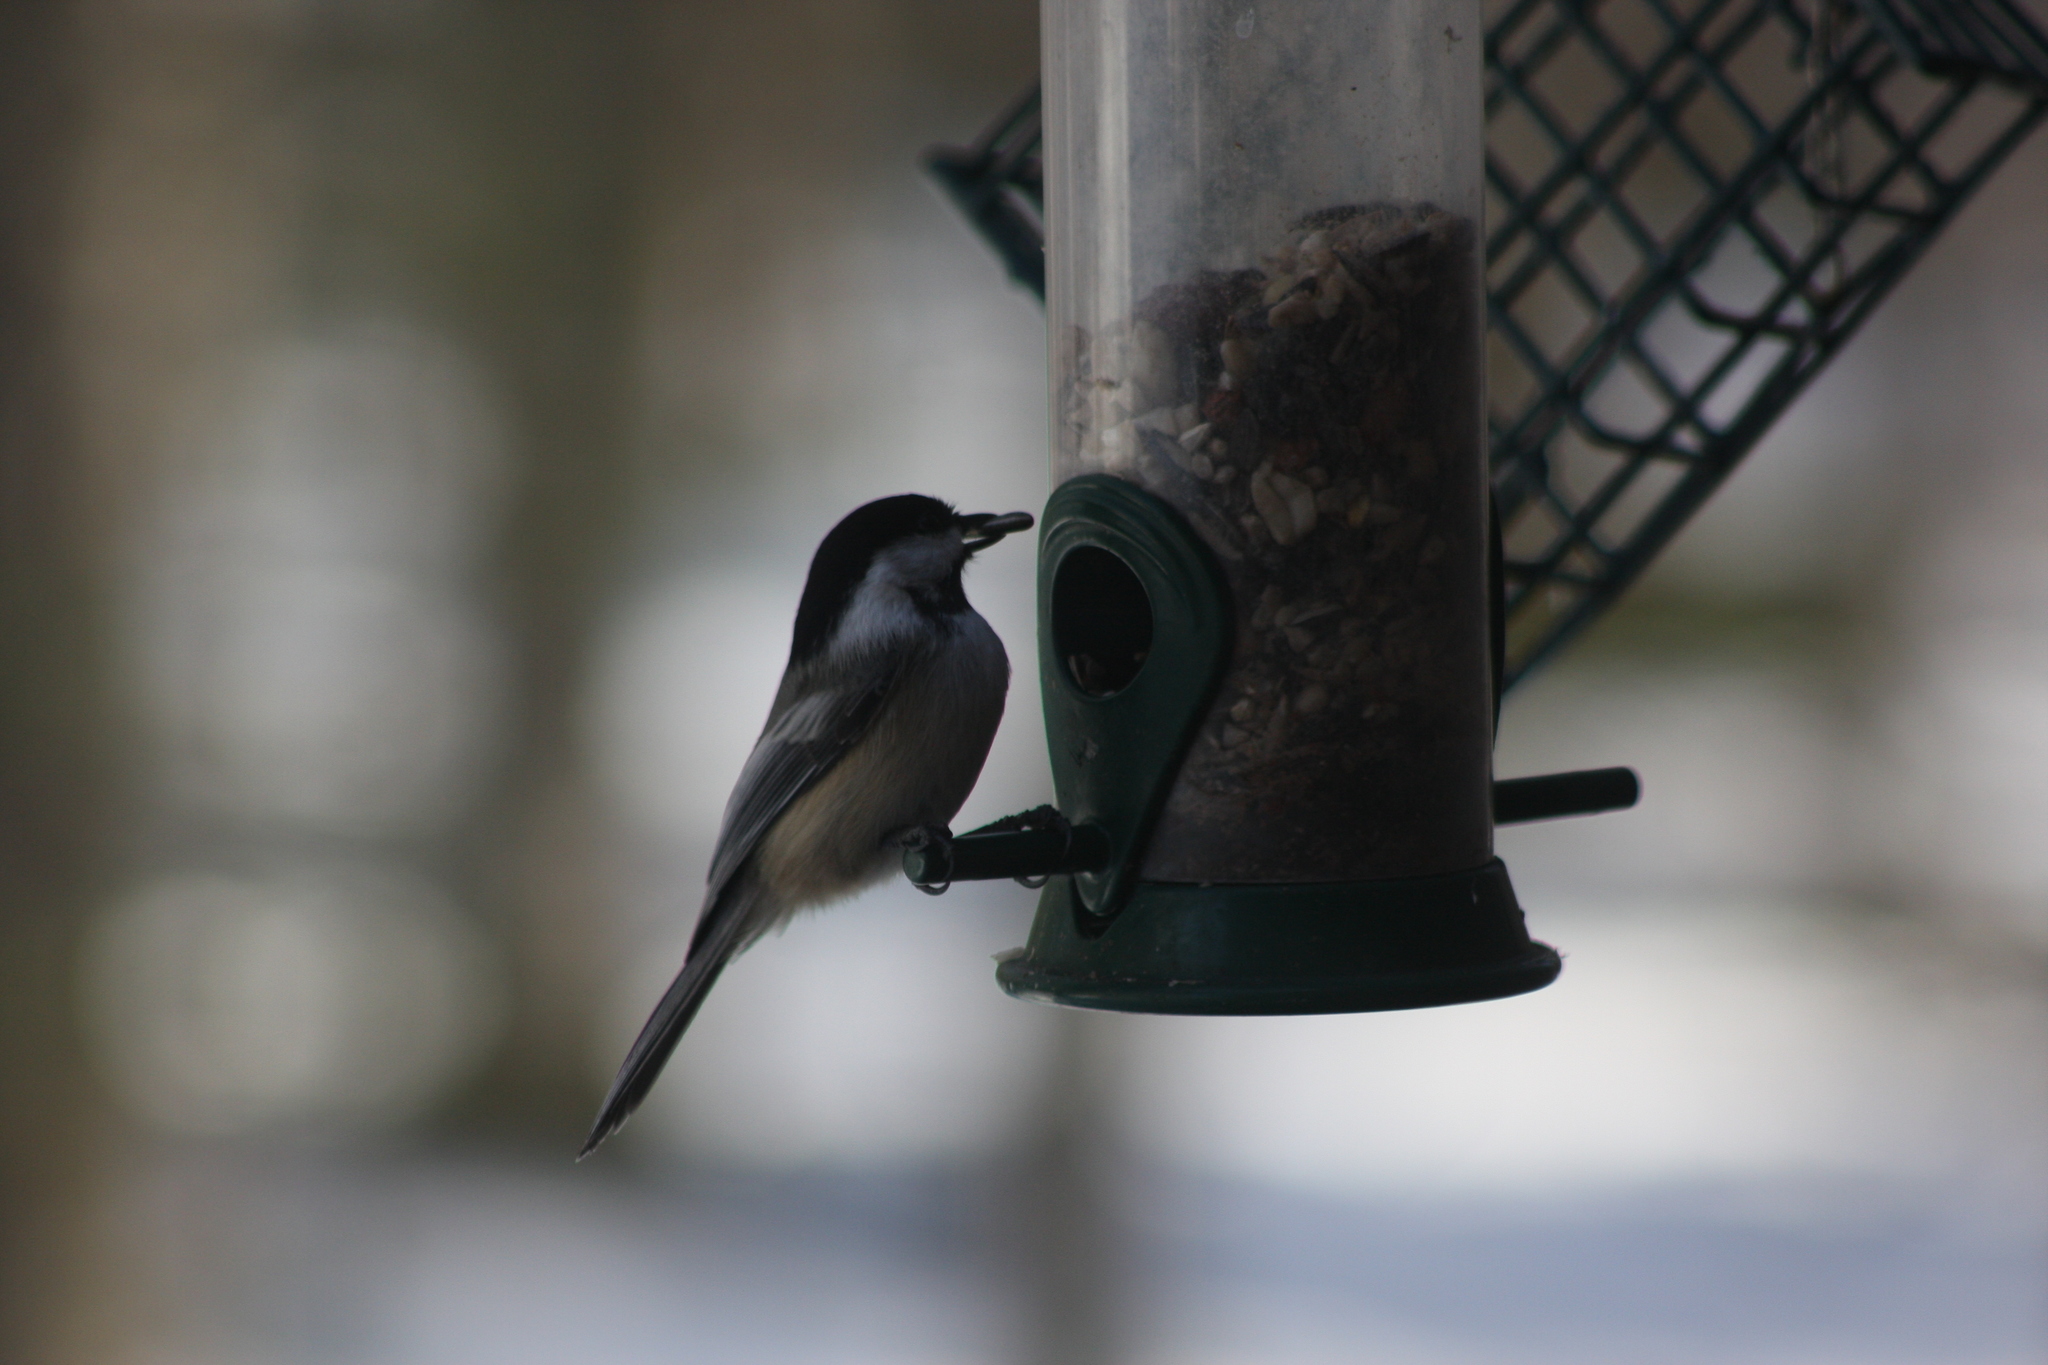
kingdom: Animalia
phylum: Chordata
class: Aves
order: Passeriformes
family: Paridae
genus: Poecile
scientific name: Poecile atricapillus
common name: Black-capped chickadee
